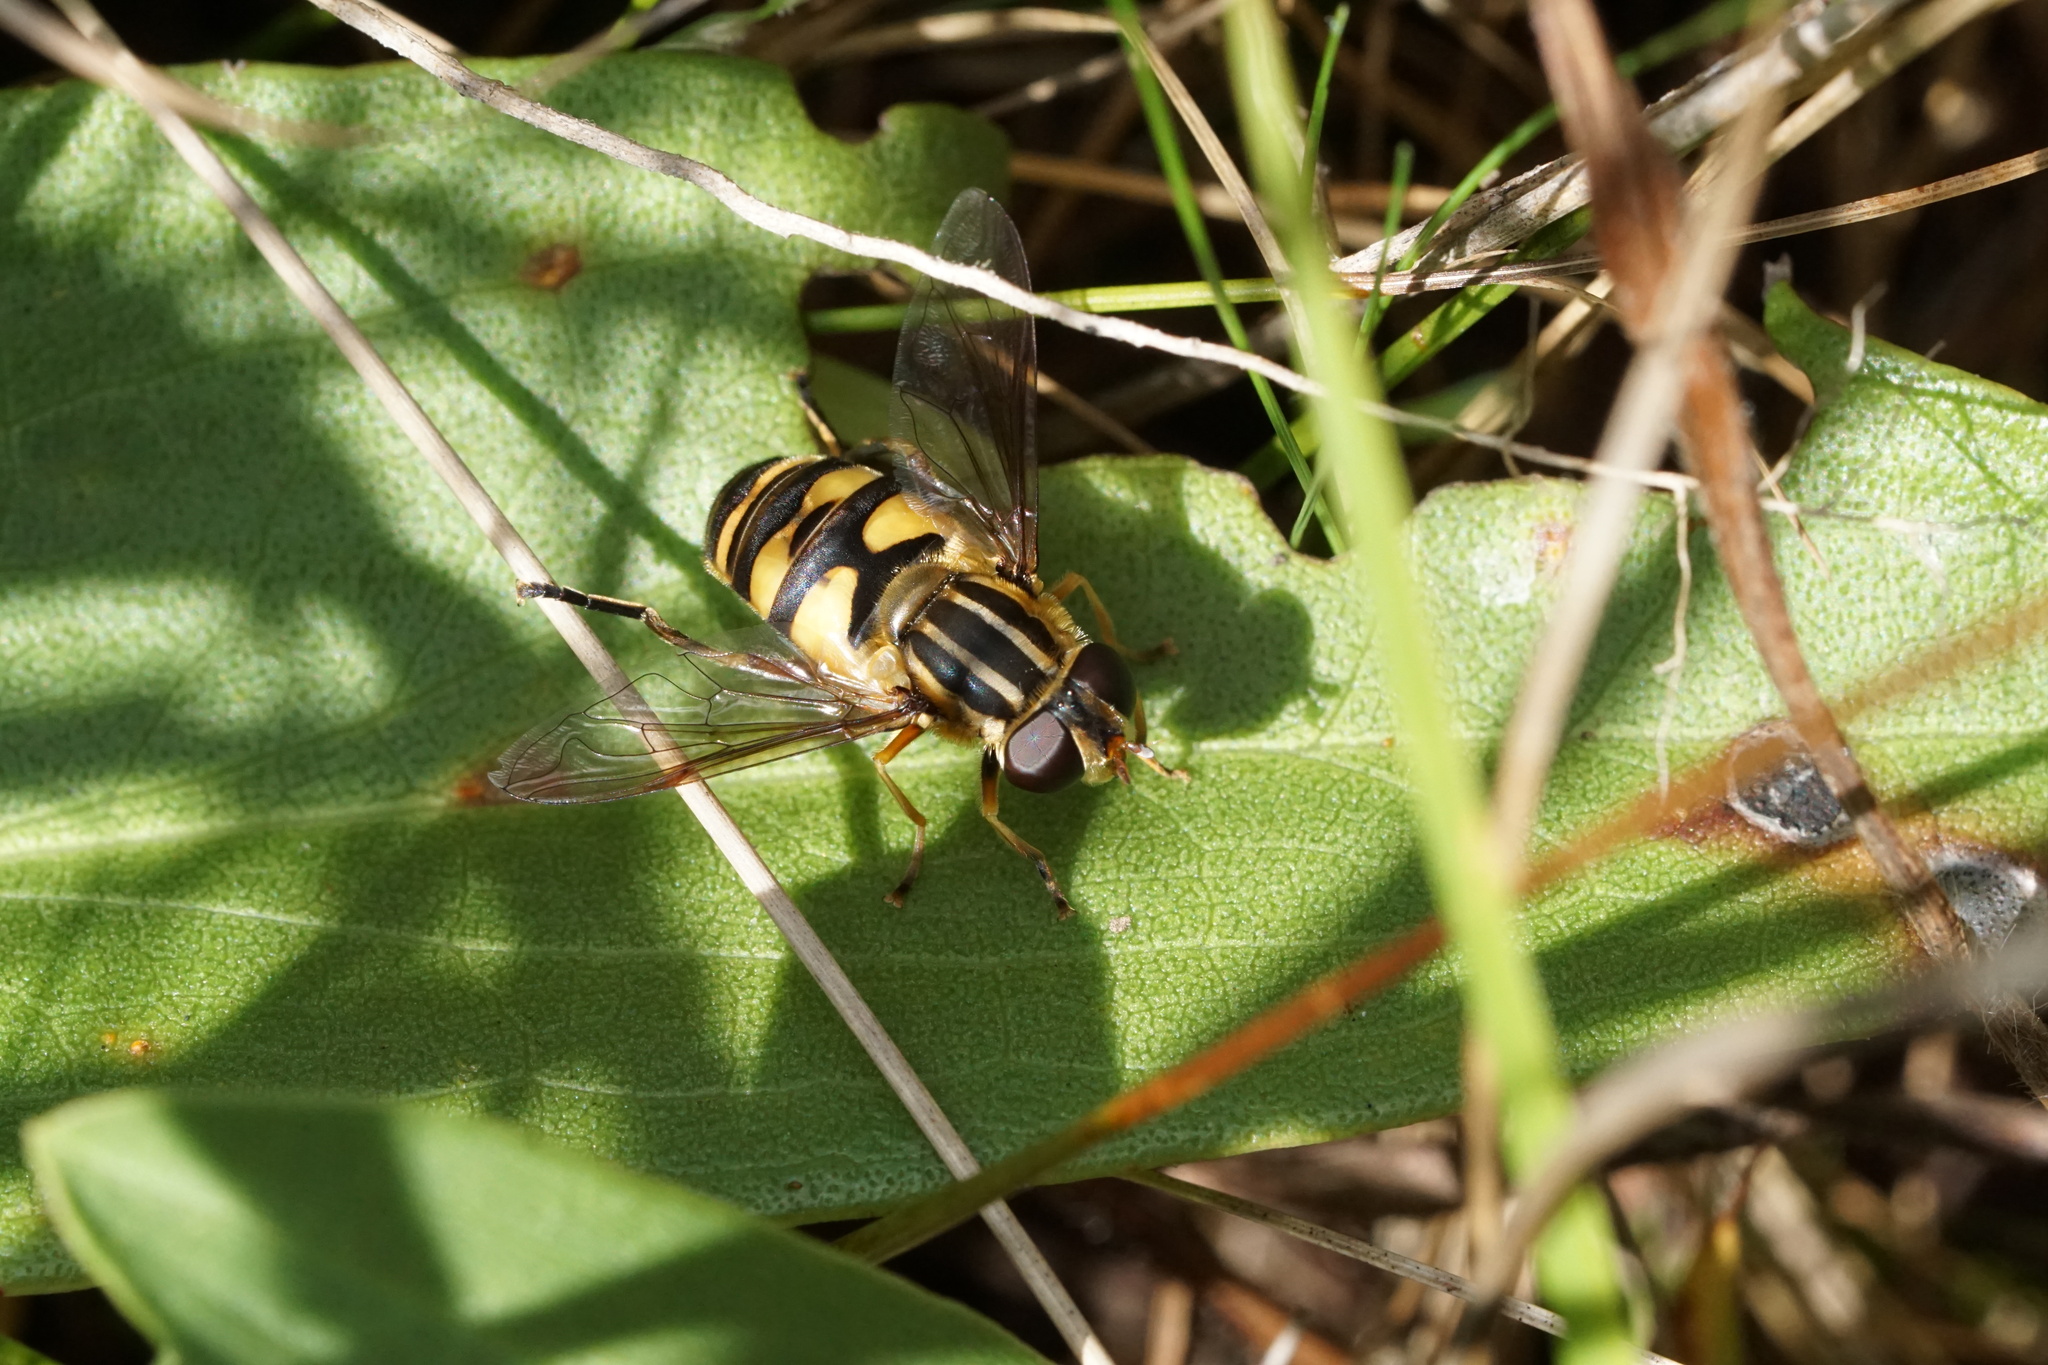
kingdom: Animalia
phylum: Arthropoda
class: Insecta
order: Diptera
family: Syrphidae
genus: Helophilus
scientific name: Helophilus fasciatus
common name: Narrow-headed marsh fly
